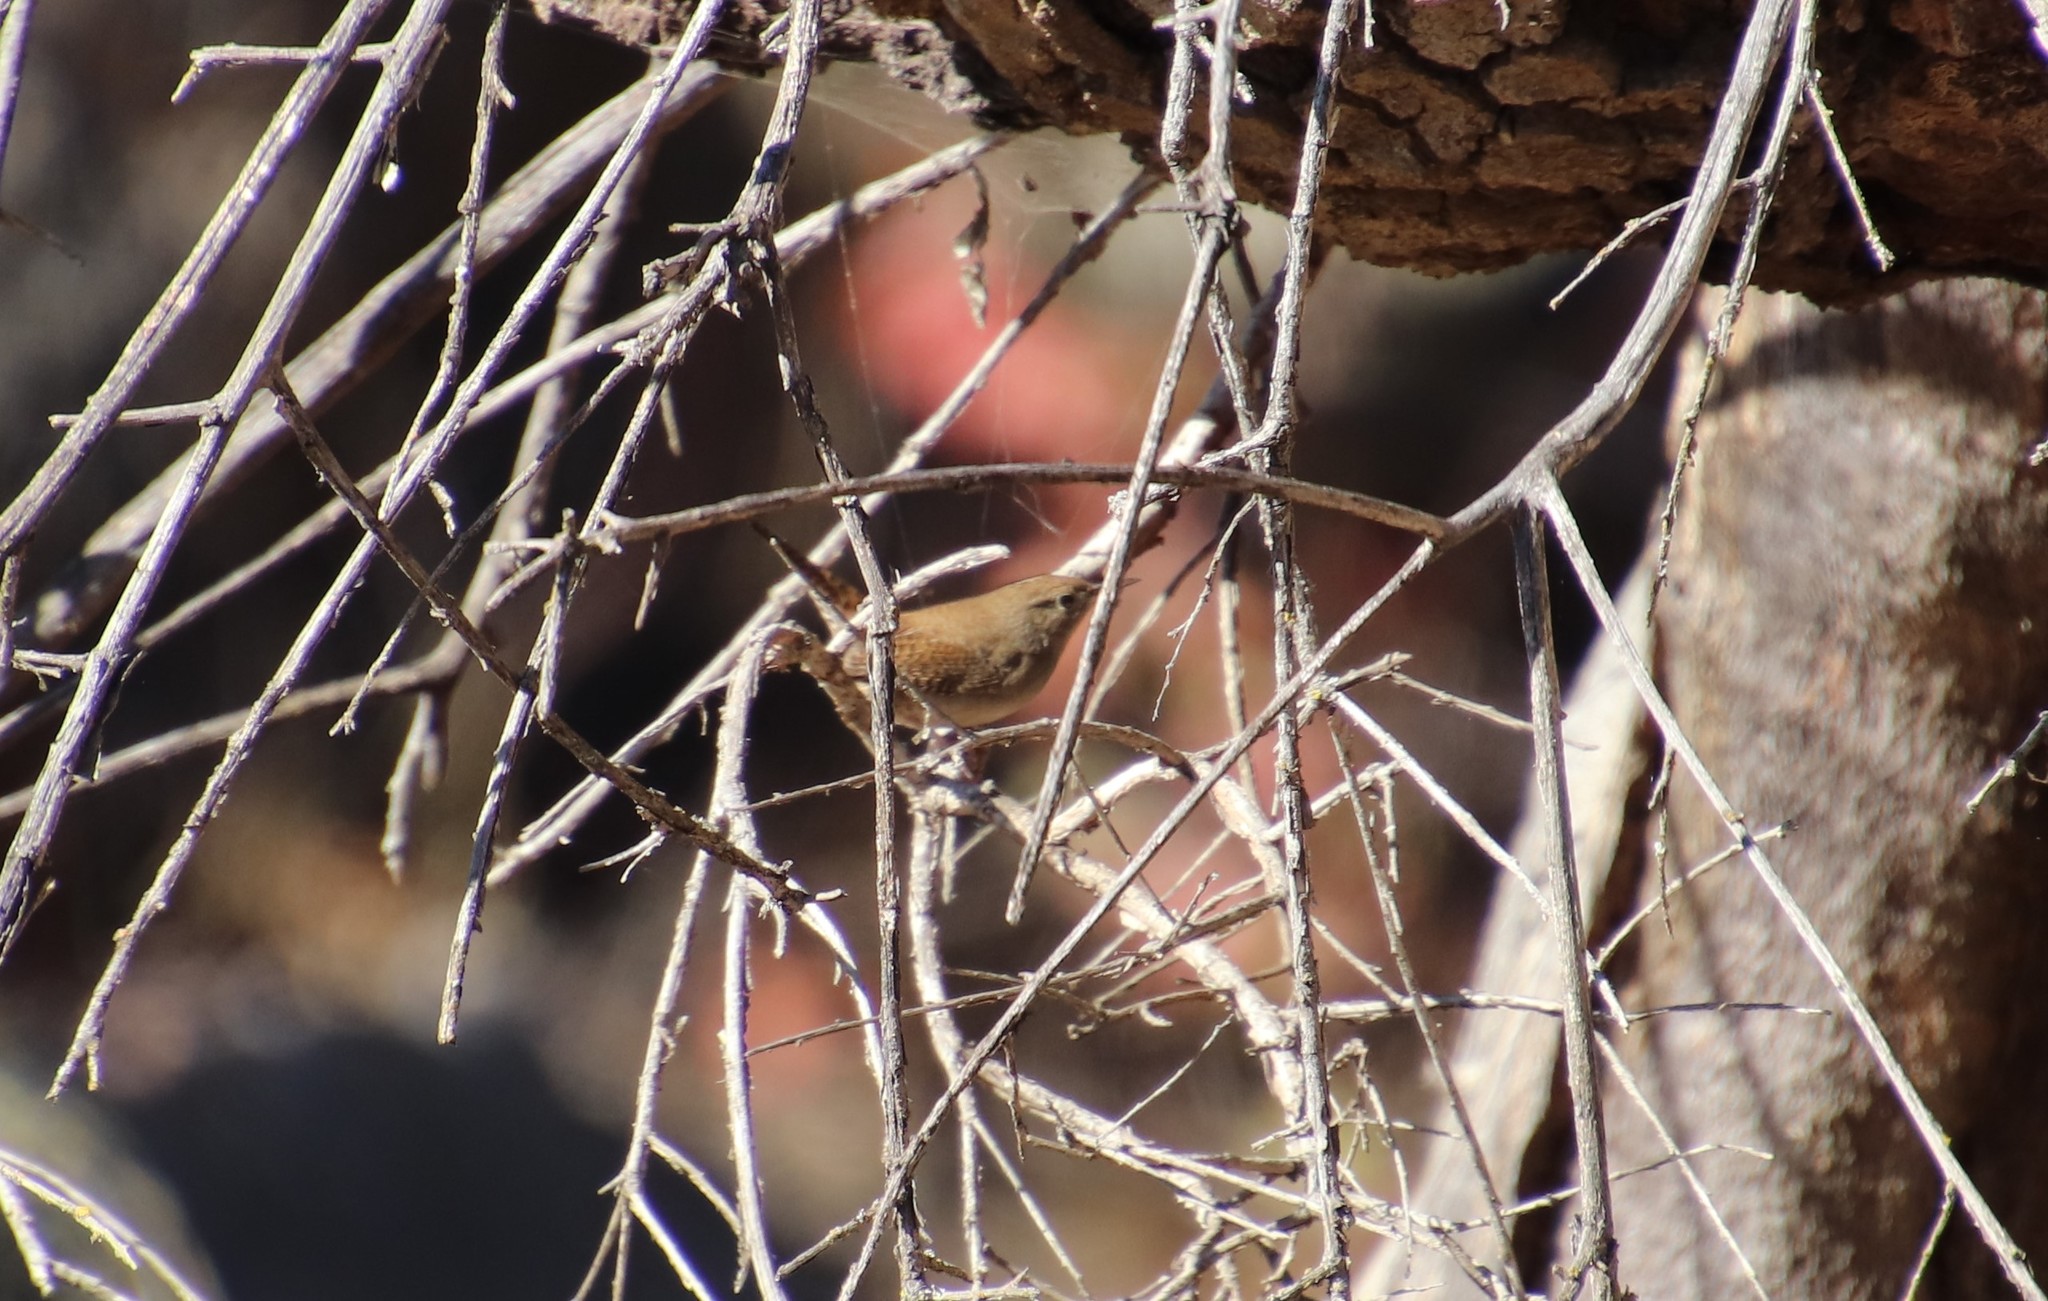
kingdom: Animalia
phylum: Chordata
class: Aves
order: Passeriformes
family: Troglodytidae
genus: Troglodytes
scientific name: Troglodytes aedon
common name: House wren
